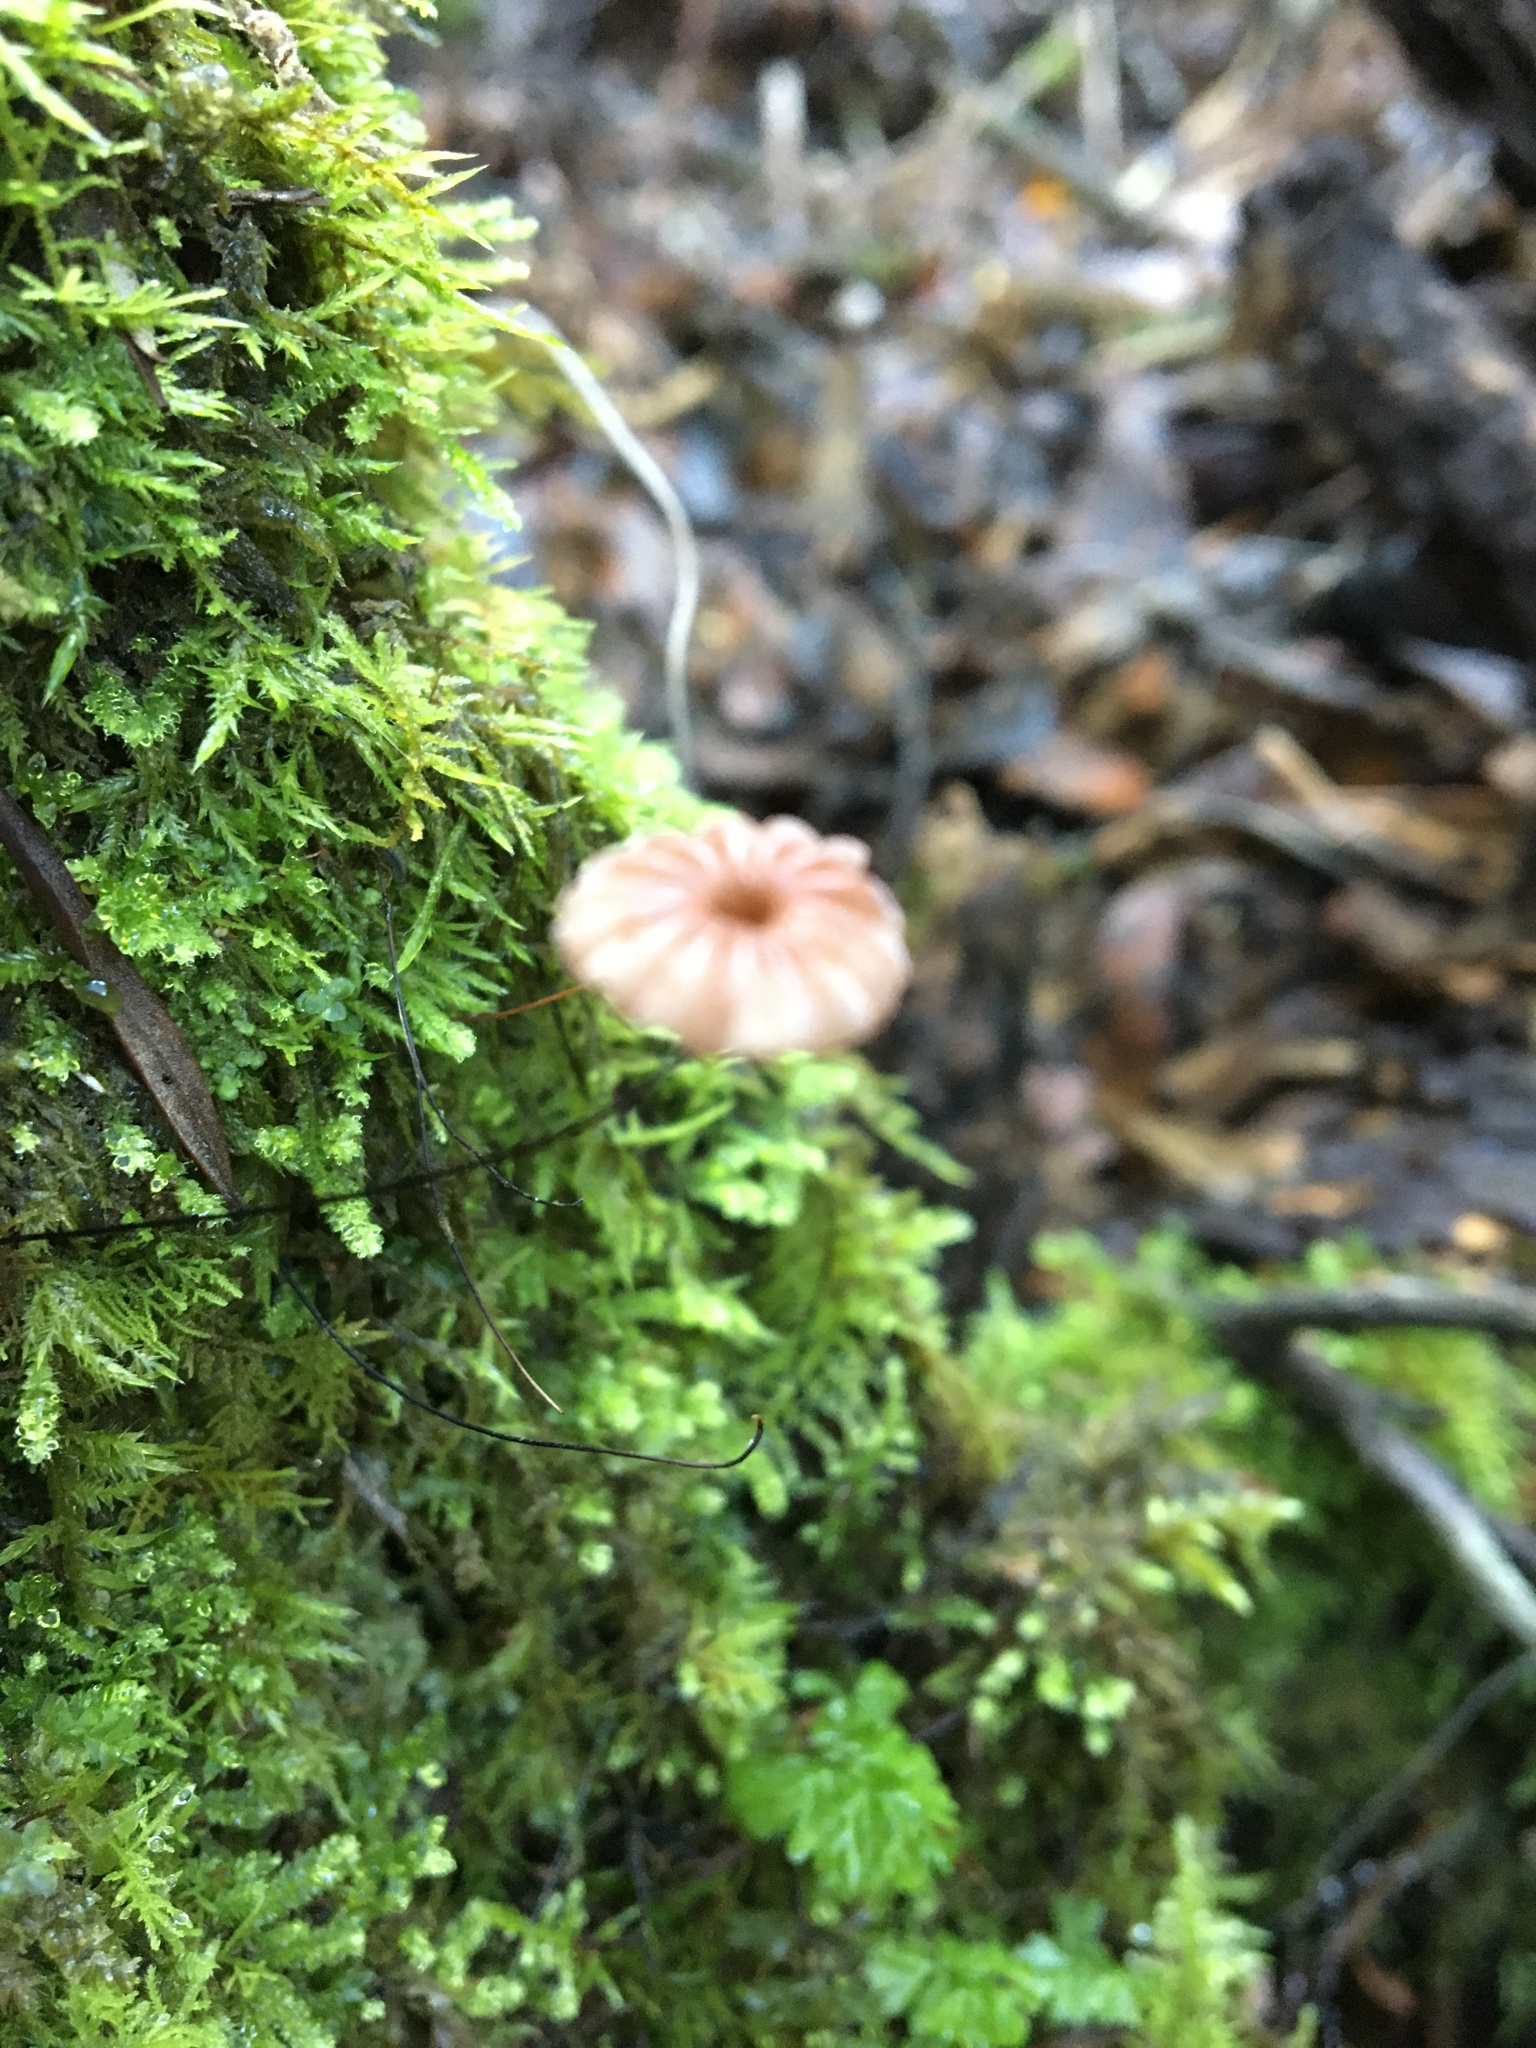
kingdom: Fungi
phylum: Basidiomycota
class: Agaricomycetes
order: Agaricales
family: Marasmiaceae
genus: Marasmius
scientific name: Marasmius crinis-equi
